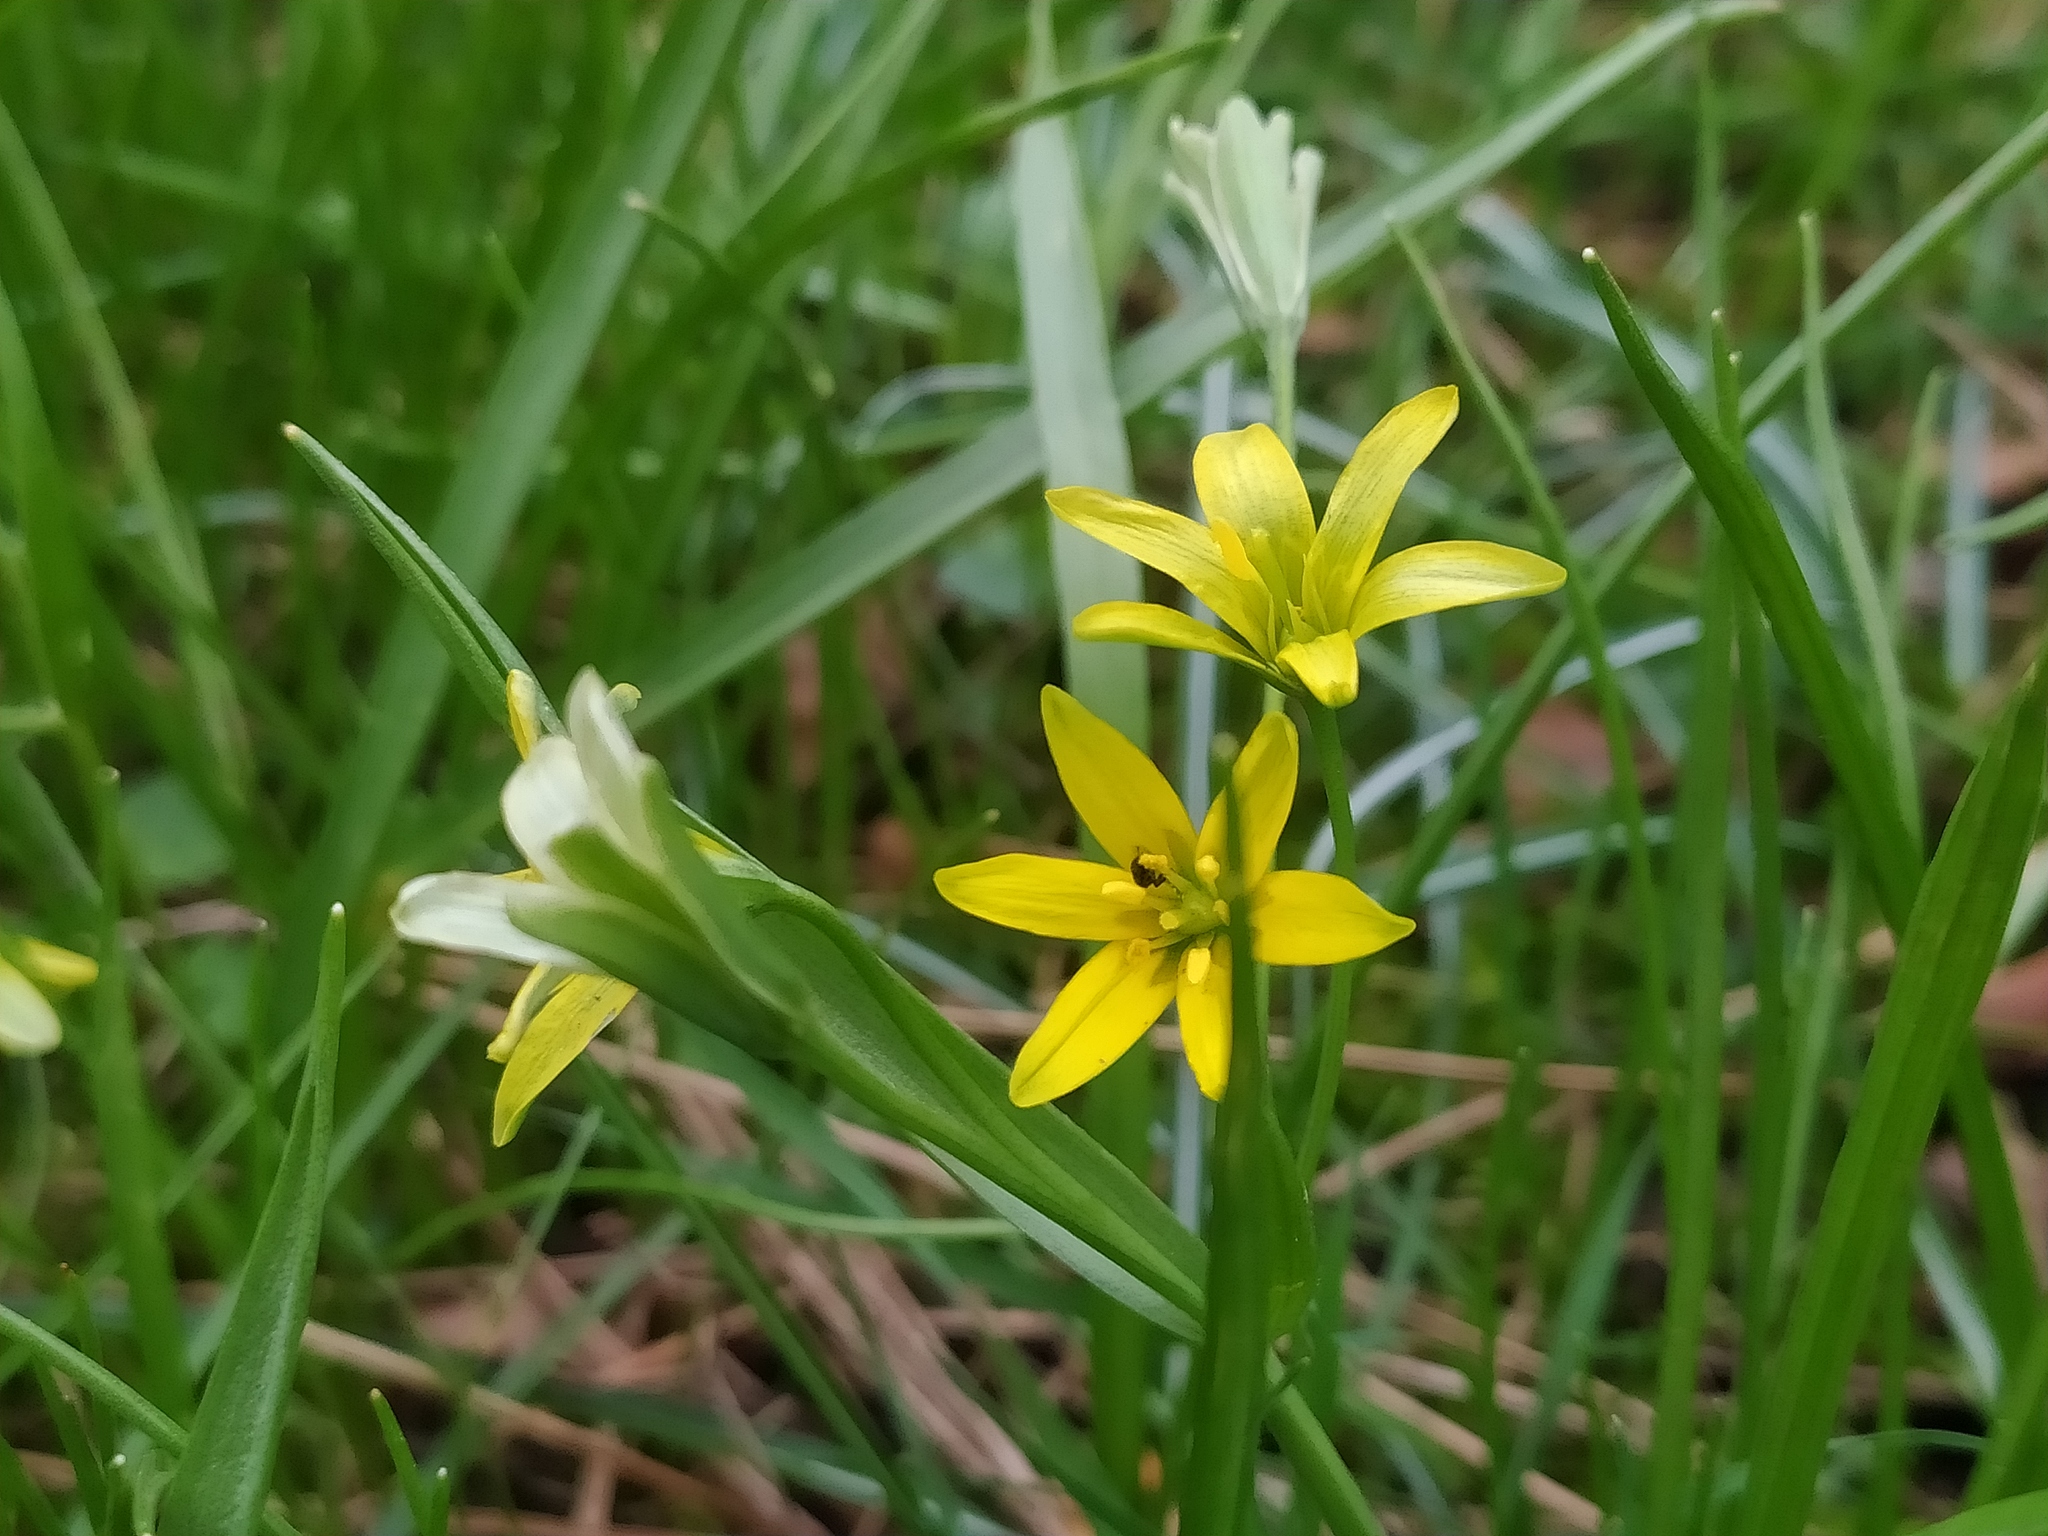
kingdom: Plantae
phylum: Tracheophyta
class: Liliopsida
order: Liliales
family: Liliaceae
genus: Gagea
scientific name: Gagea lutea
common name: Yellow star-of-bethlehem
